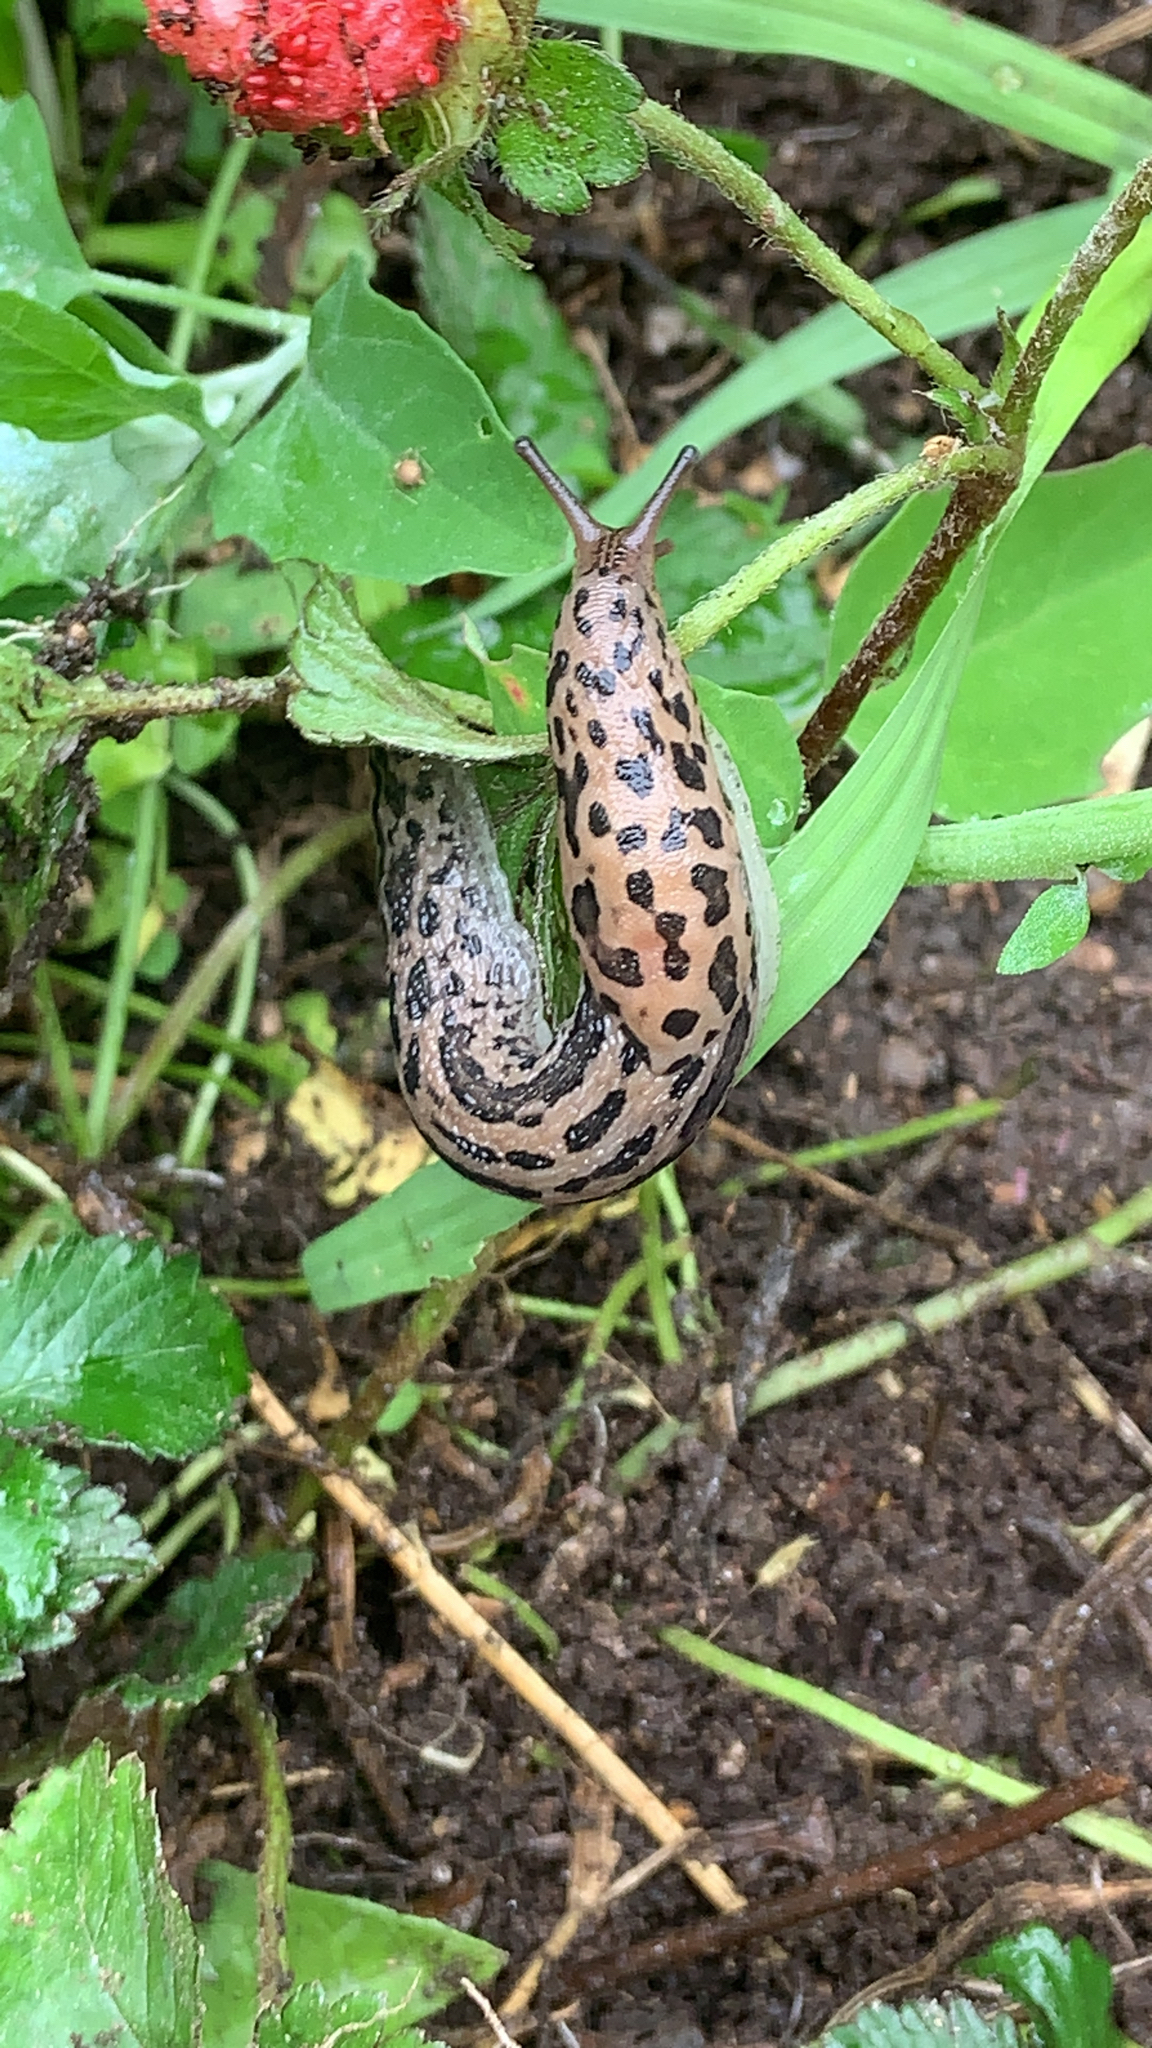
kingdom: Animalia
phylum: Mollusca
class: Gastropoda
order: Stylommatophora
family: Limacidae
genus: Limax
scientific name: Limax maximus
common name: Great grey slug
